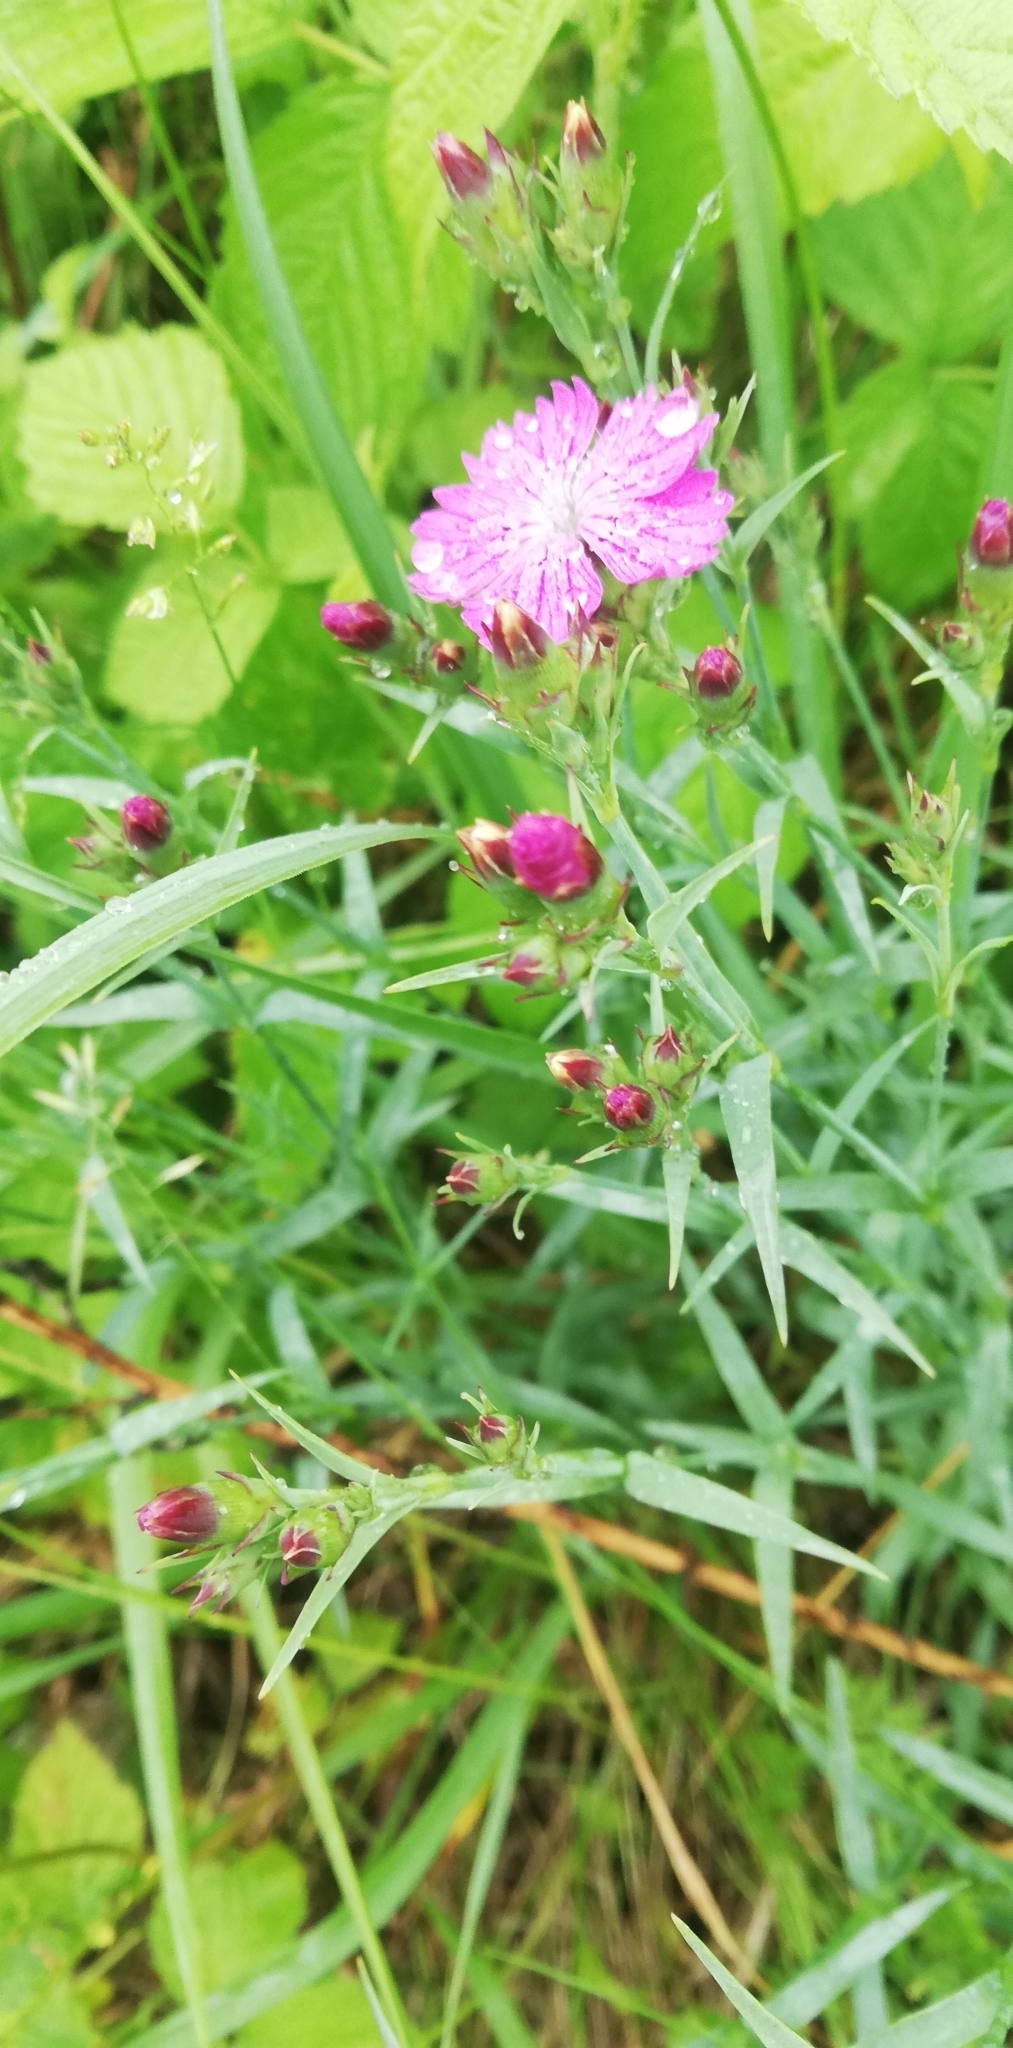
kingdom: Plantae
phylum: Tracheophyta
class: Magnoliopsida
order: Caryophyllales
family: Caryophyllaceae
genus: Dianthus
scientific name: Dianthus chinensis
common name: Rainbow pink
